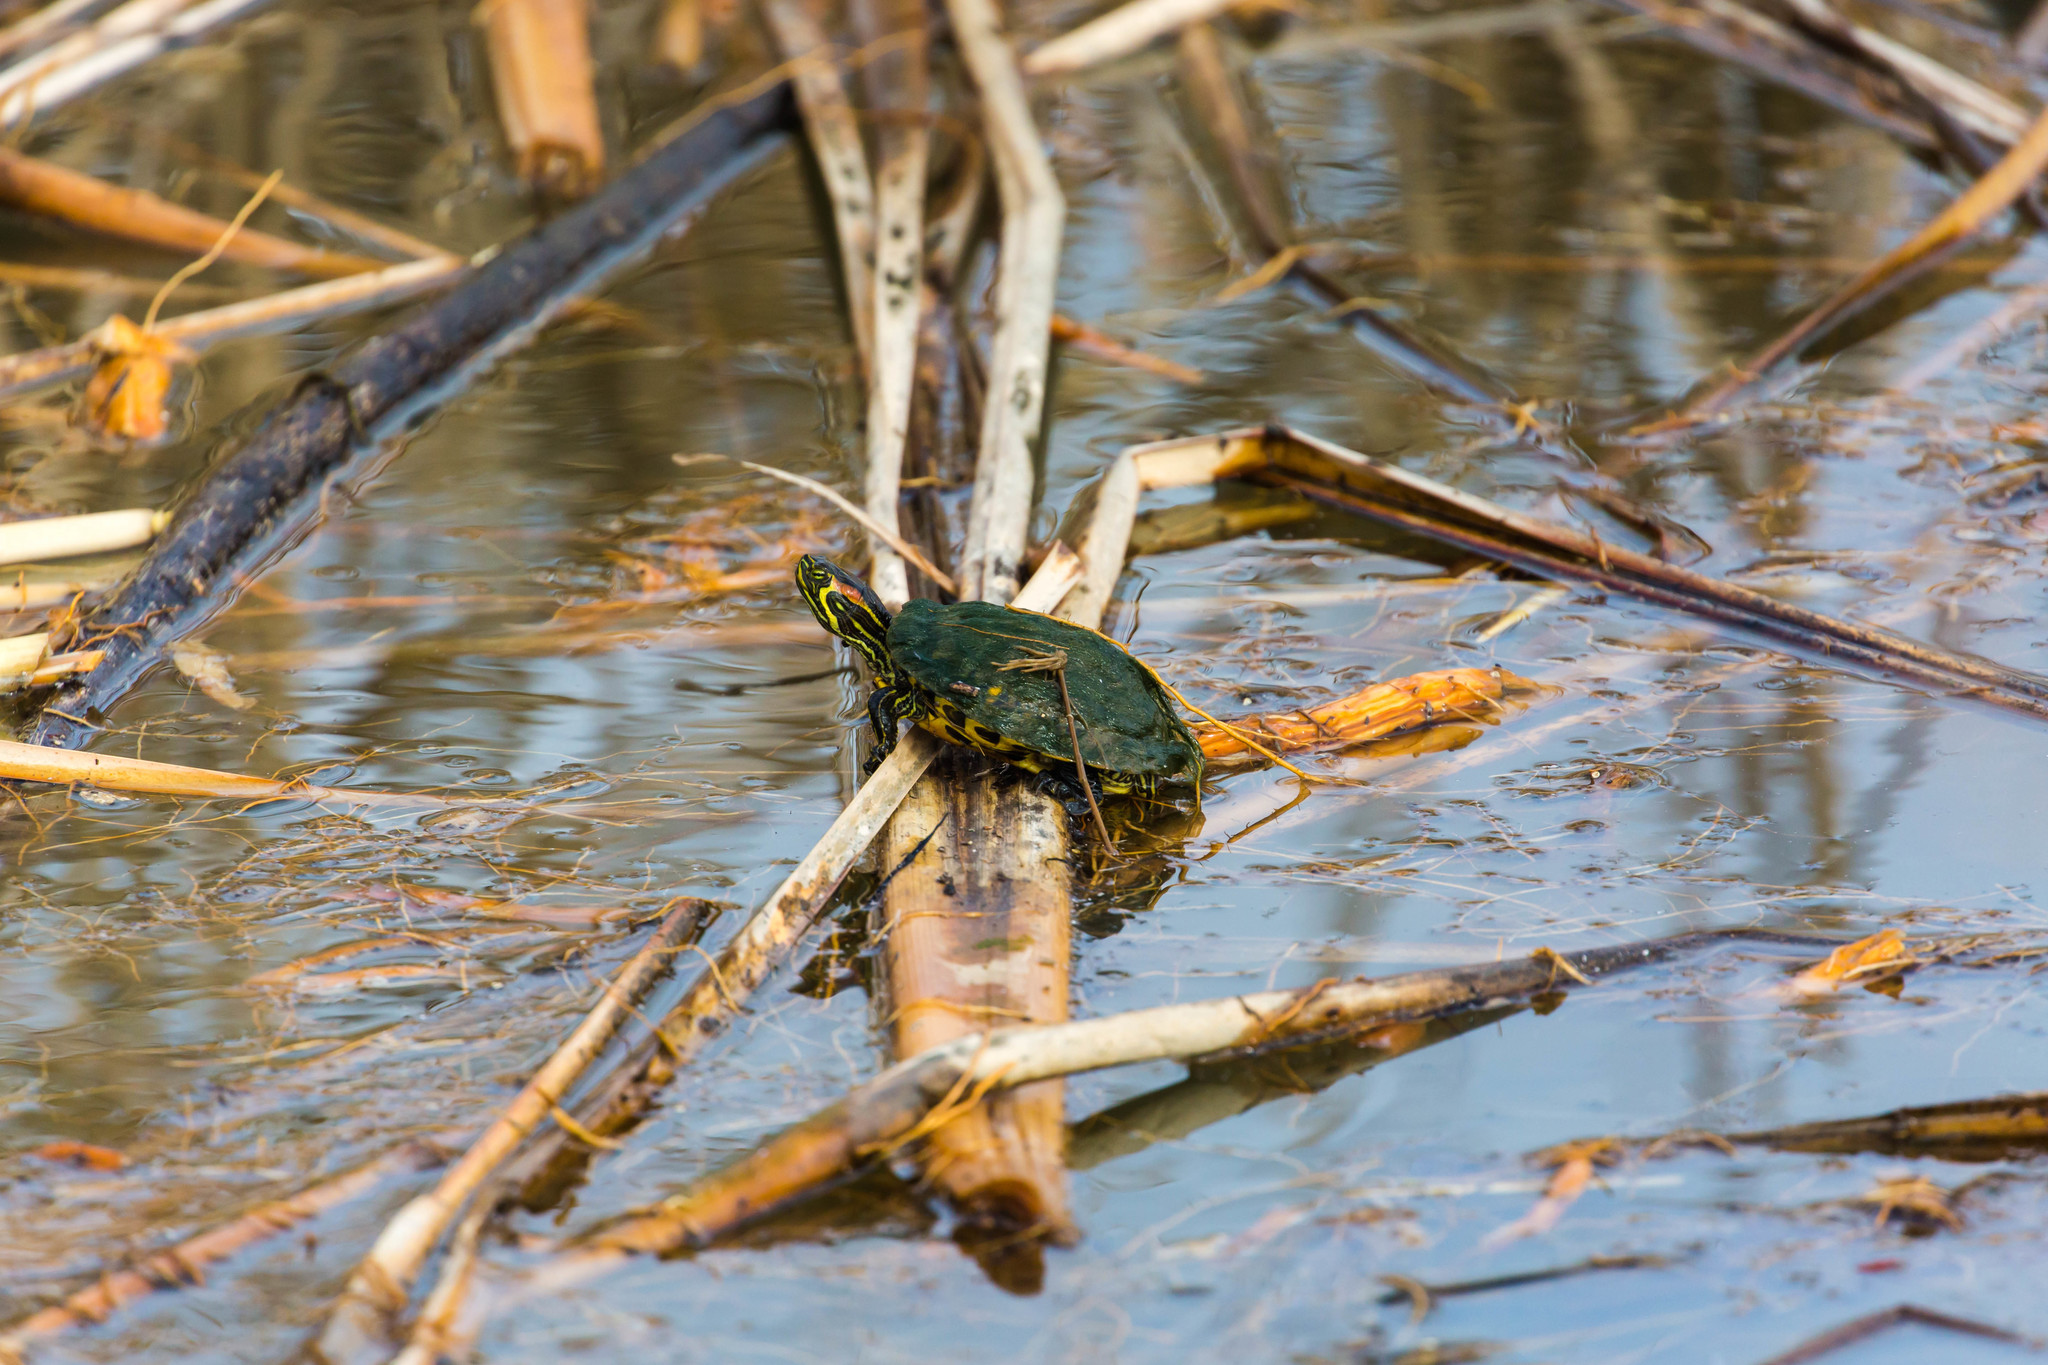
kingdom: Animalia
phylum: Chordata
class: Testudines
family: Emydidae
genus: Trachemys
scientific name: Trachemys scripta
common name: Slider
